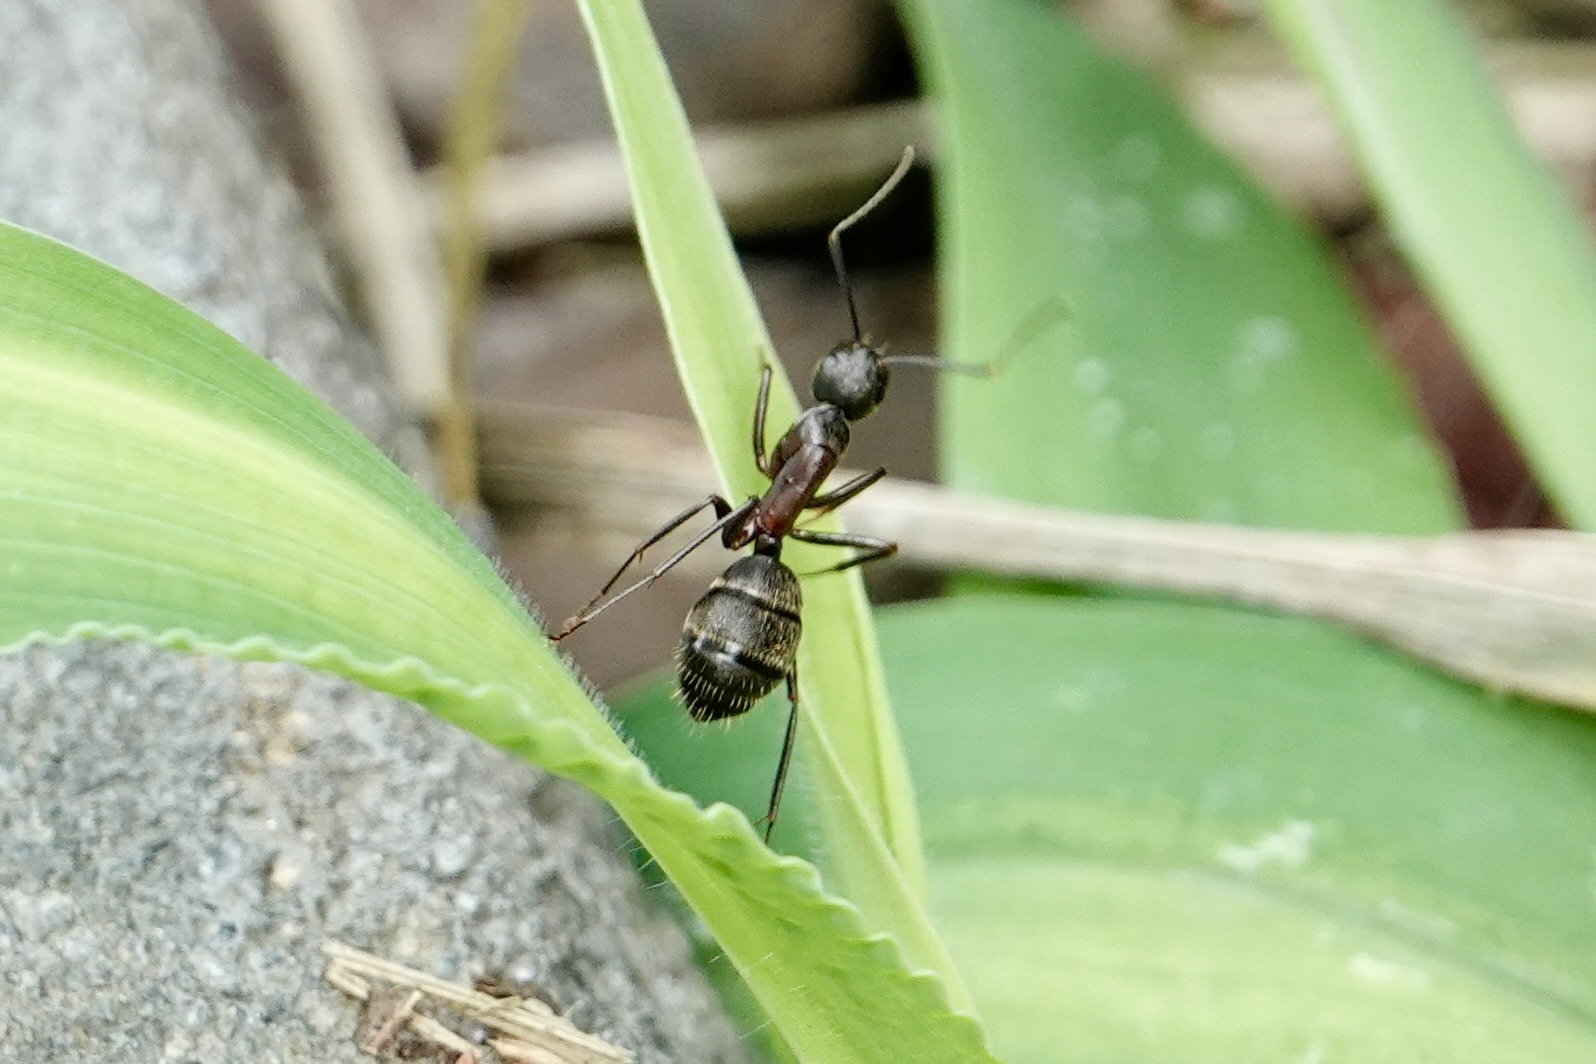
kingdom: Animalia
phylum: Arthropoda
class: Insecta
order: Hymenoptera
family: Formicidae
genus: Camponotus
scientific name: Camponotus chromaiodes
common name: Red carpenter ant
